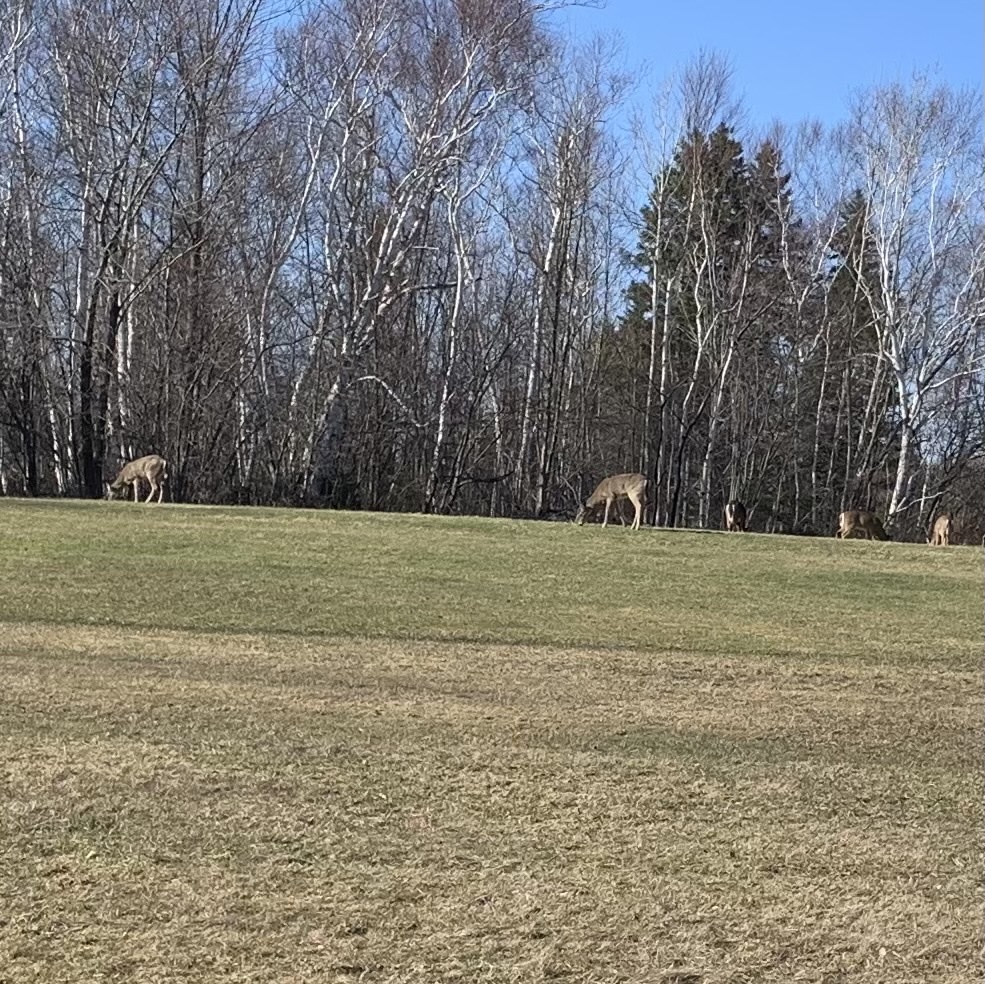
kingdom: Animalia
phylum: Chordata
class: Mammalia
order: Artiodactyla
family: Cervidae
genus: Odocoileus
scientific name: Odocoileus virginianus
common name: White-tailed deer
